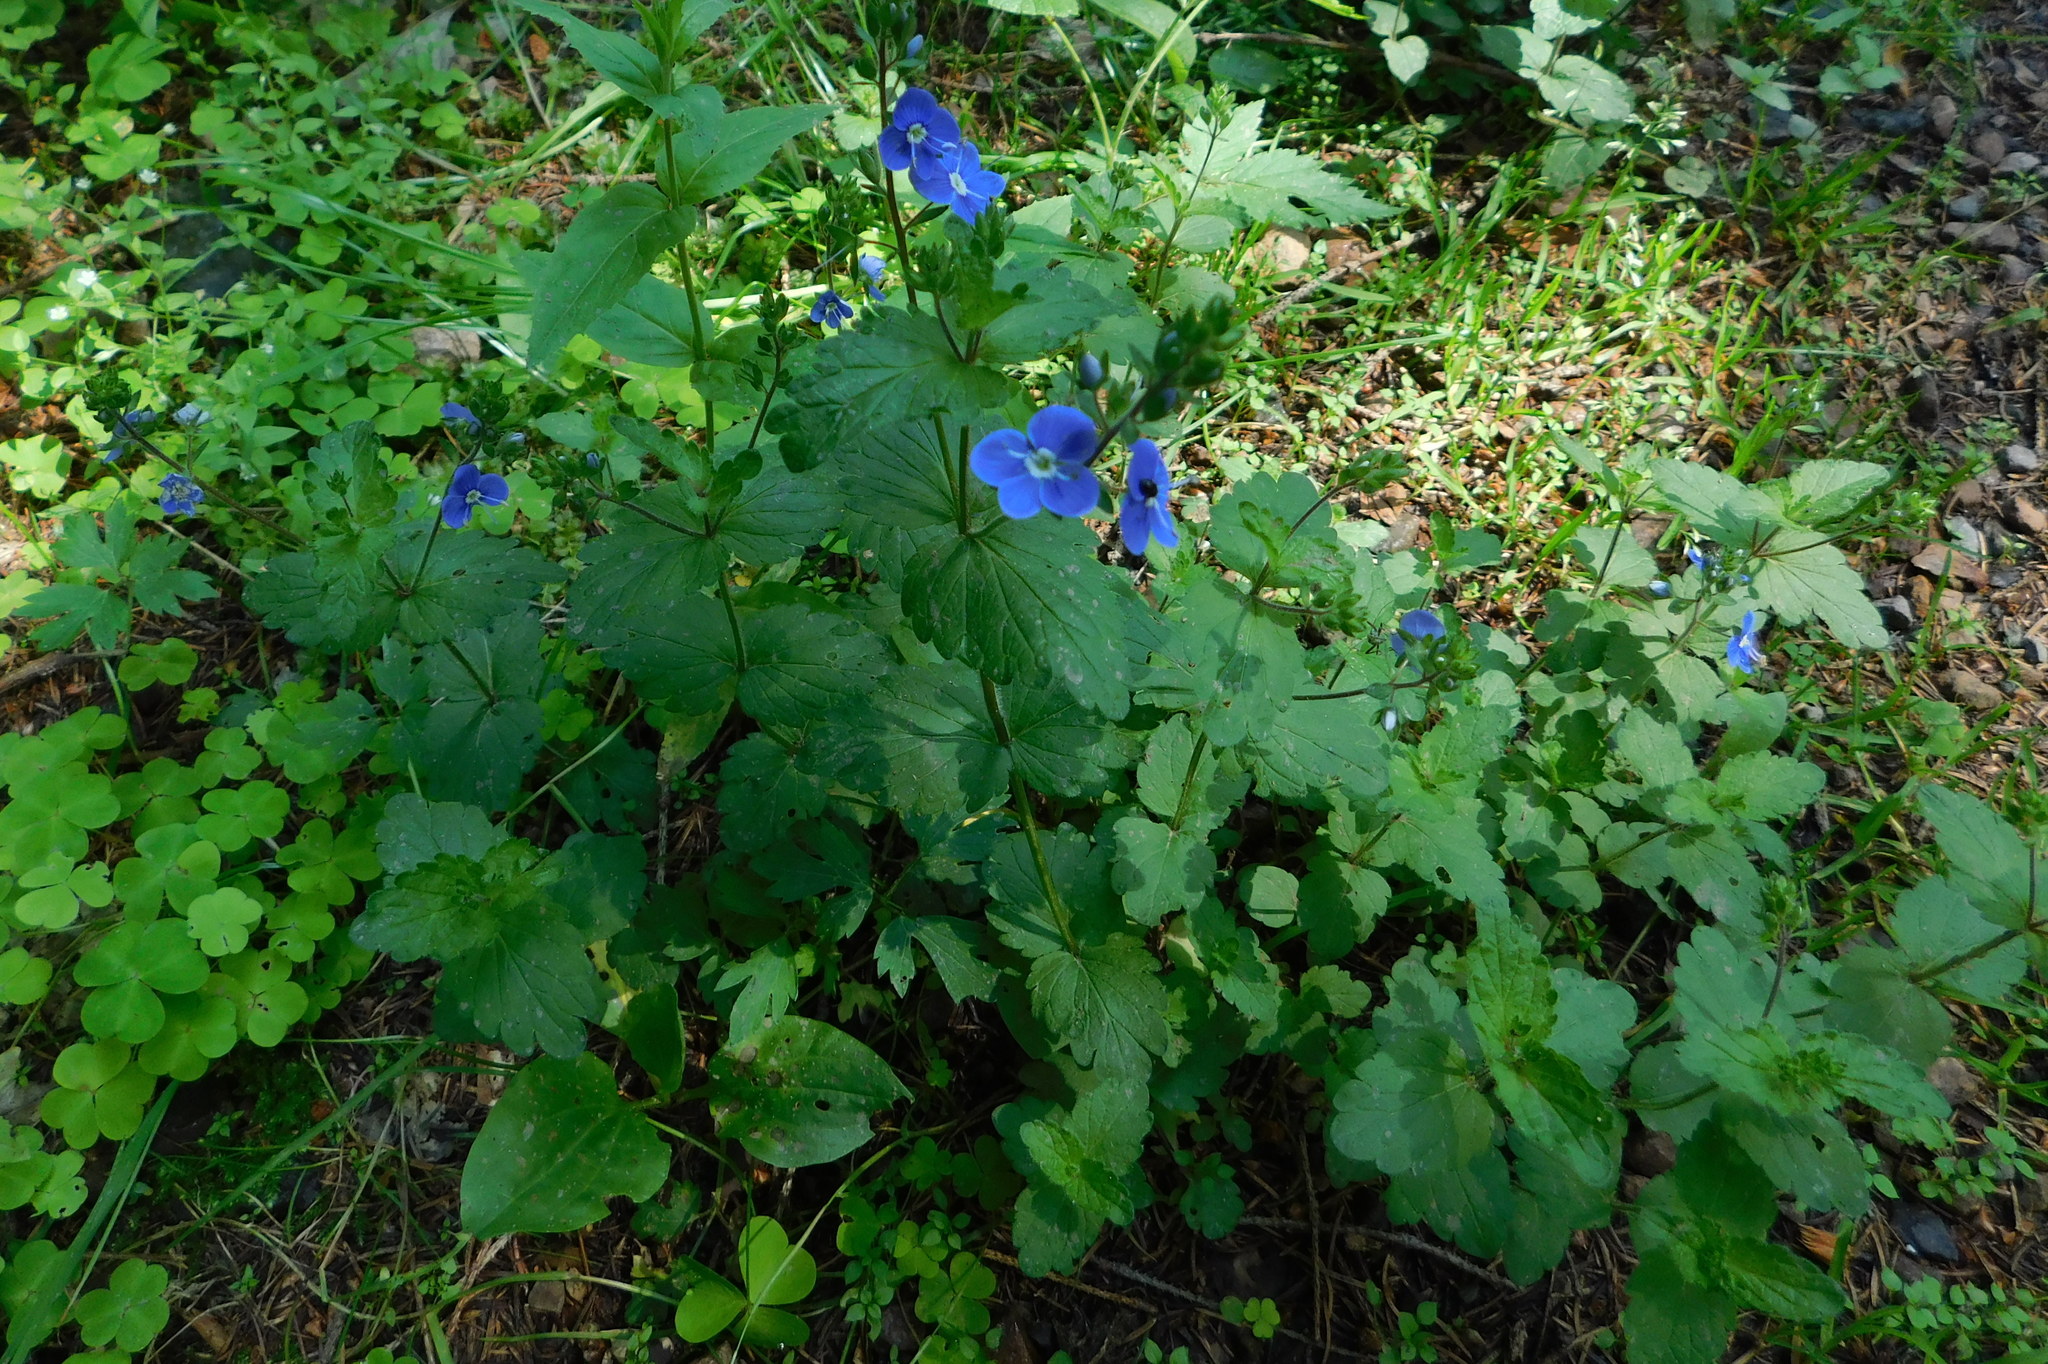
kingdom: Plantae
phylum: Tracheophyta
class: Magnoliopsida
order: Lamiales
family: Plantaginaceae
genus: Veronica
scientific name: Veronica chamaedrys
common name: Germander speedwell
